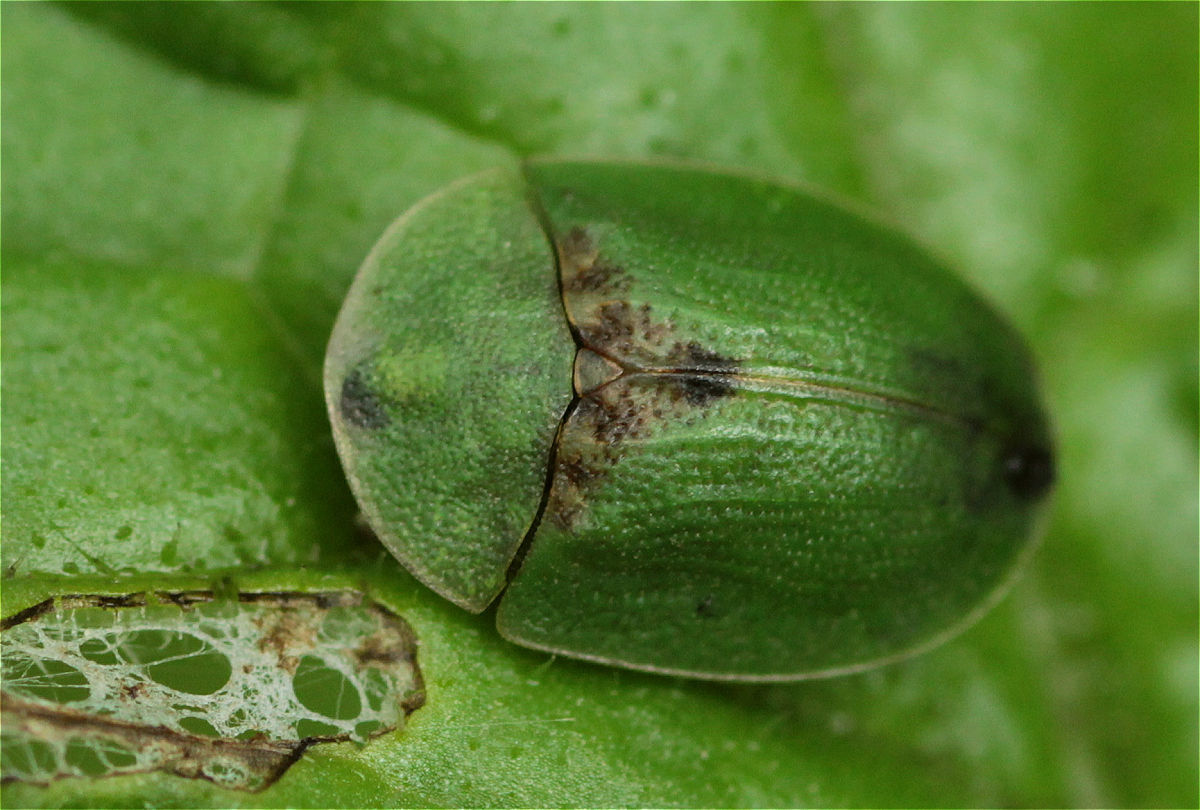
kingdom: Animalia
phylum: Arthropoda
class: Insecta
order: Coleoptera
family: Chrysomelidae
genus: Cassida
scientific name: Cassida rubiginosa
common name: Thistle tortoise beetle
